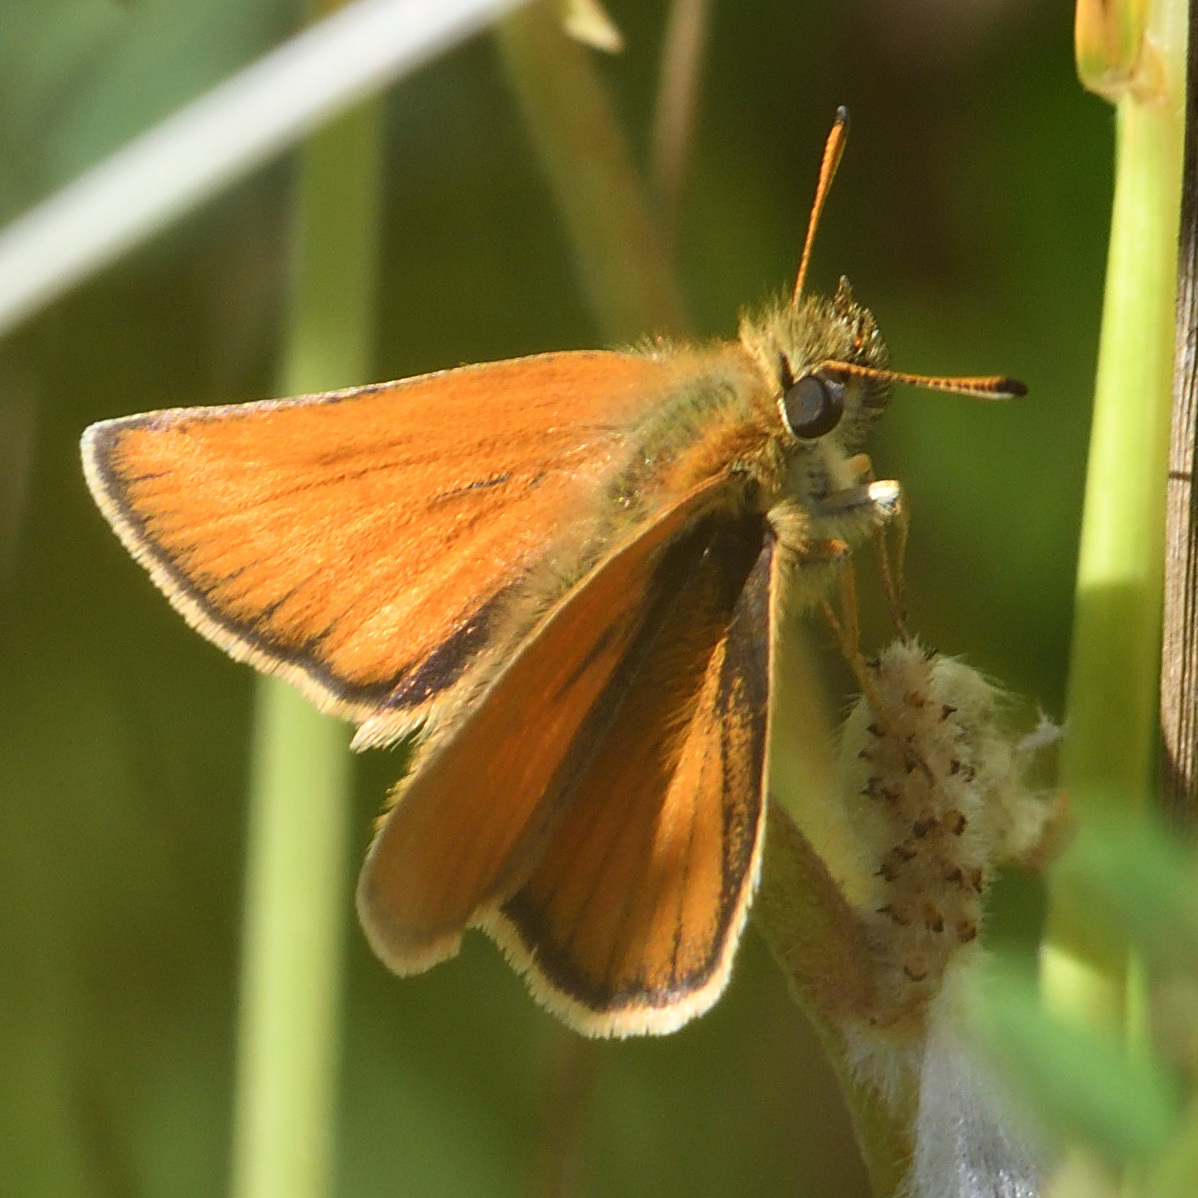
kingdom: Animalia
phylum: Arthropoda
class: Insecta
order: Lepidoptera
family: Hesperiidae
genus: Thymelicus
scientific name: Thymelicus lineola
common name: Essex skipper
